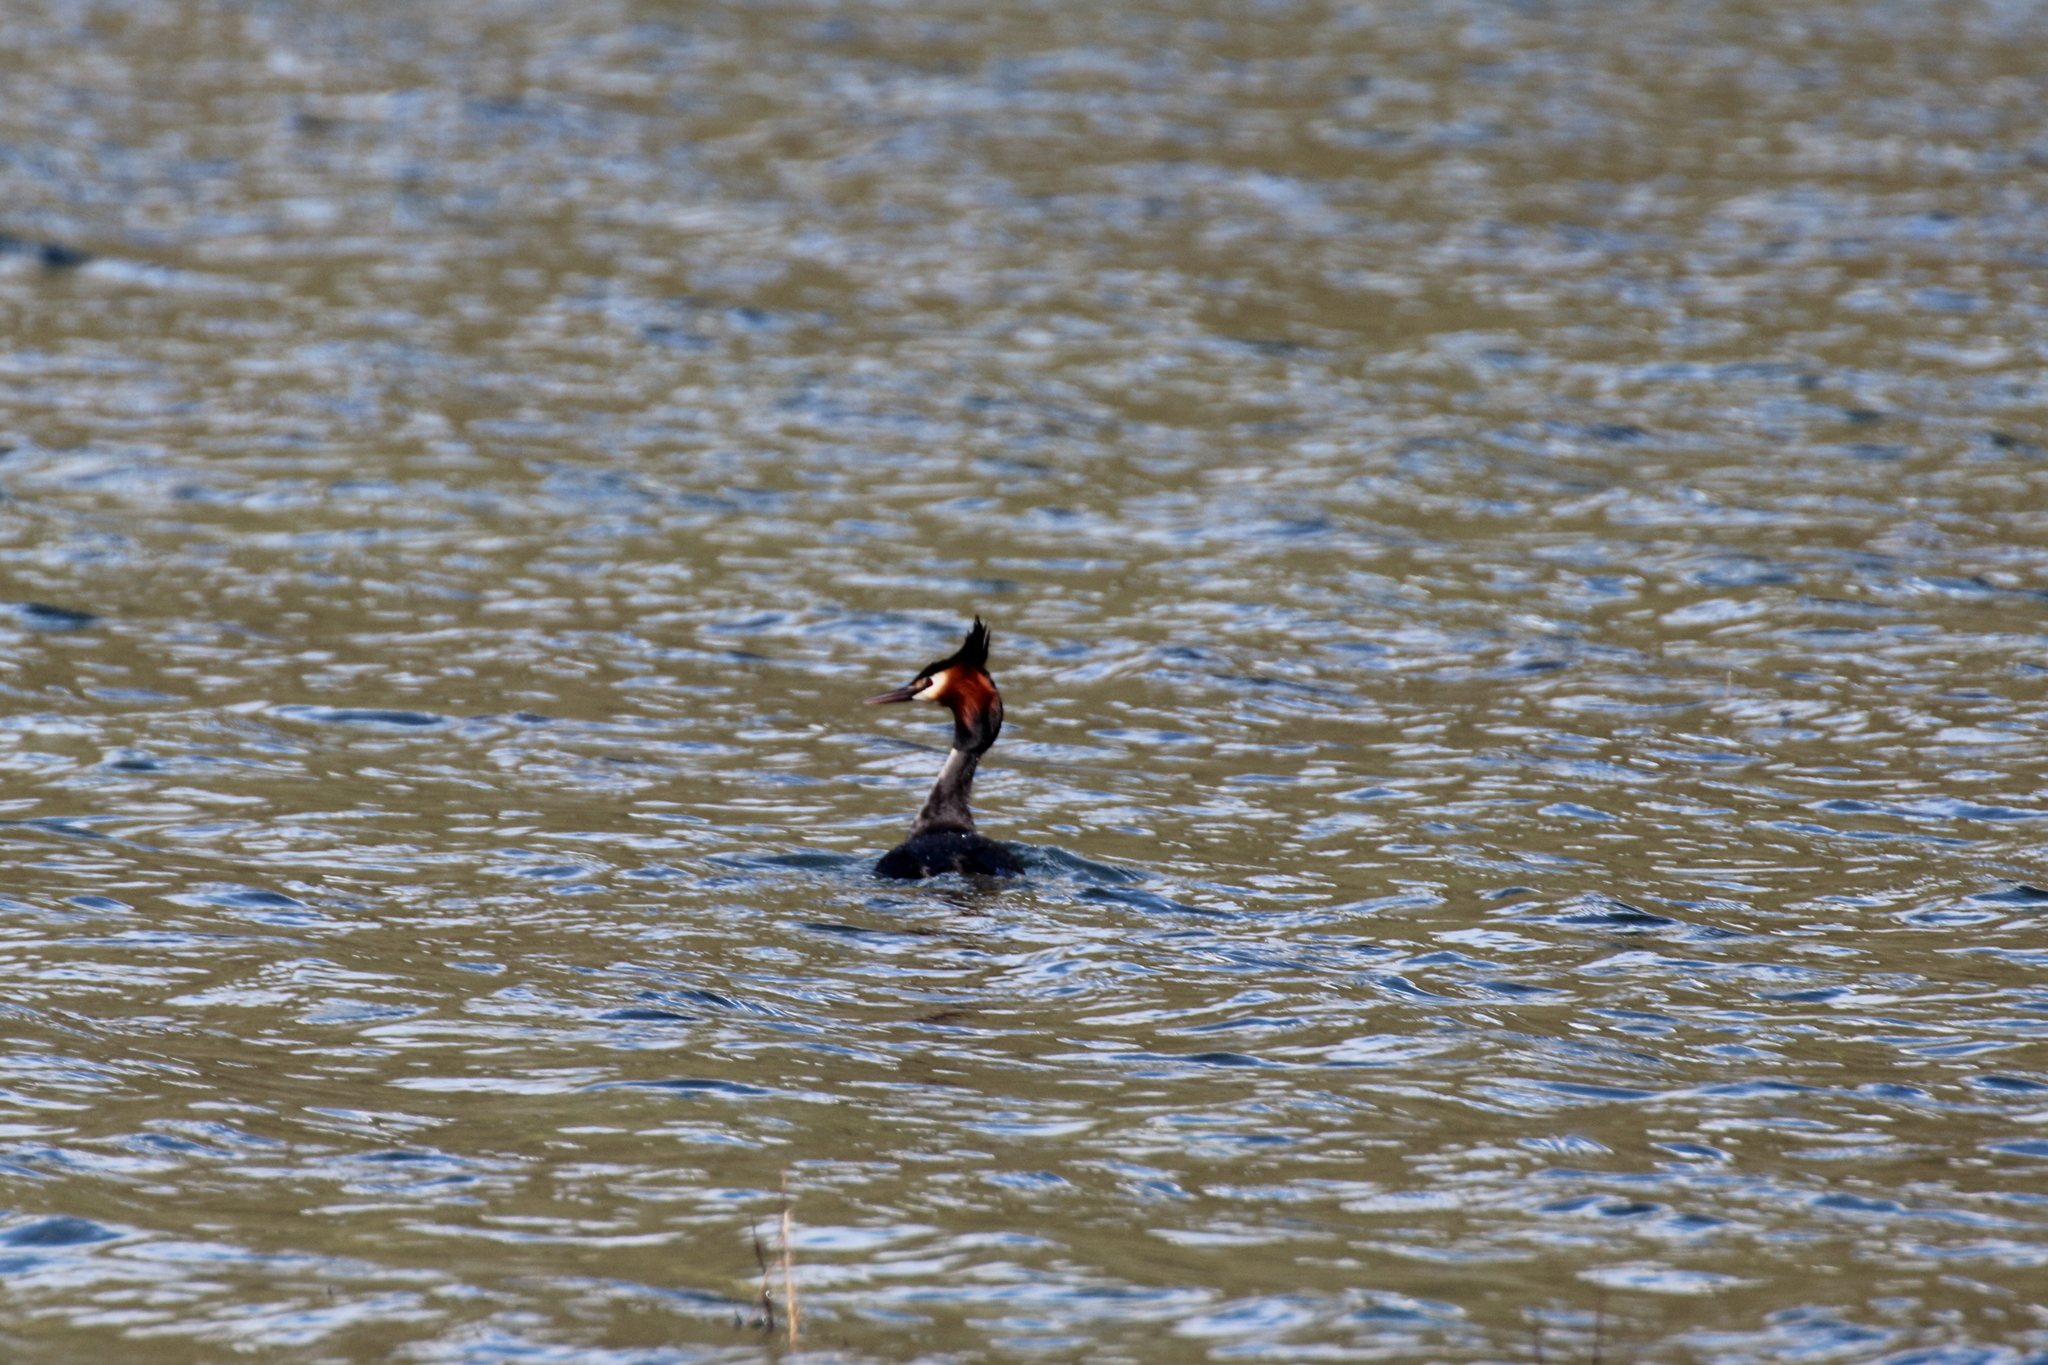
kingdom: Animalia
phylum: Chordata
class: Aves
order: Podicipediformes
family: Podicipedidae
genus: Podiceps
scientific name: Podiceps cristatus
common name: Great crested grebe
